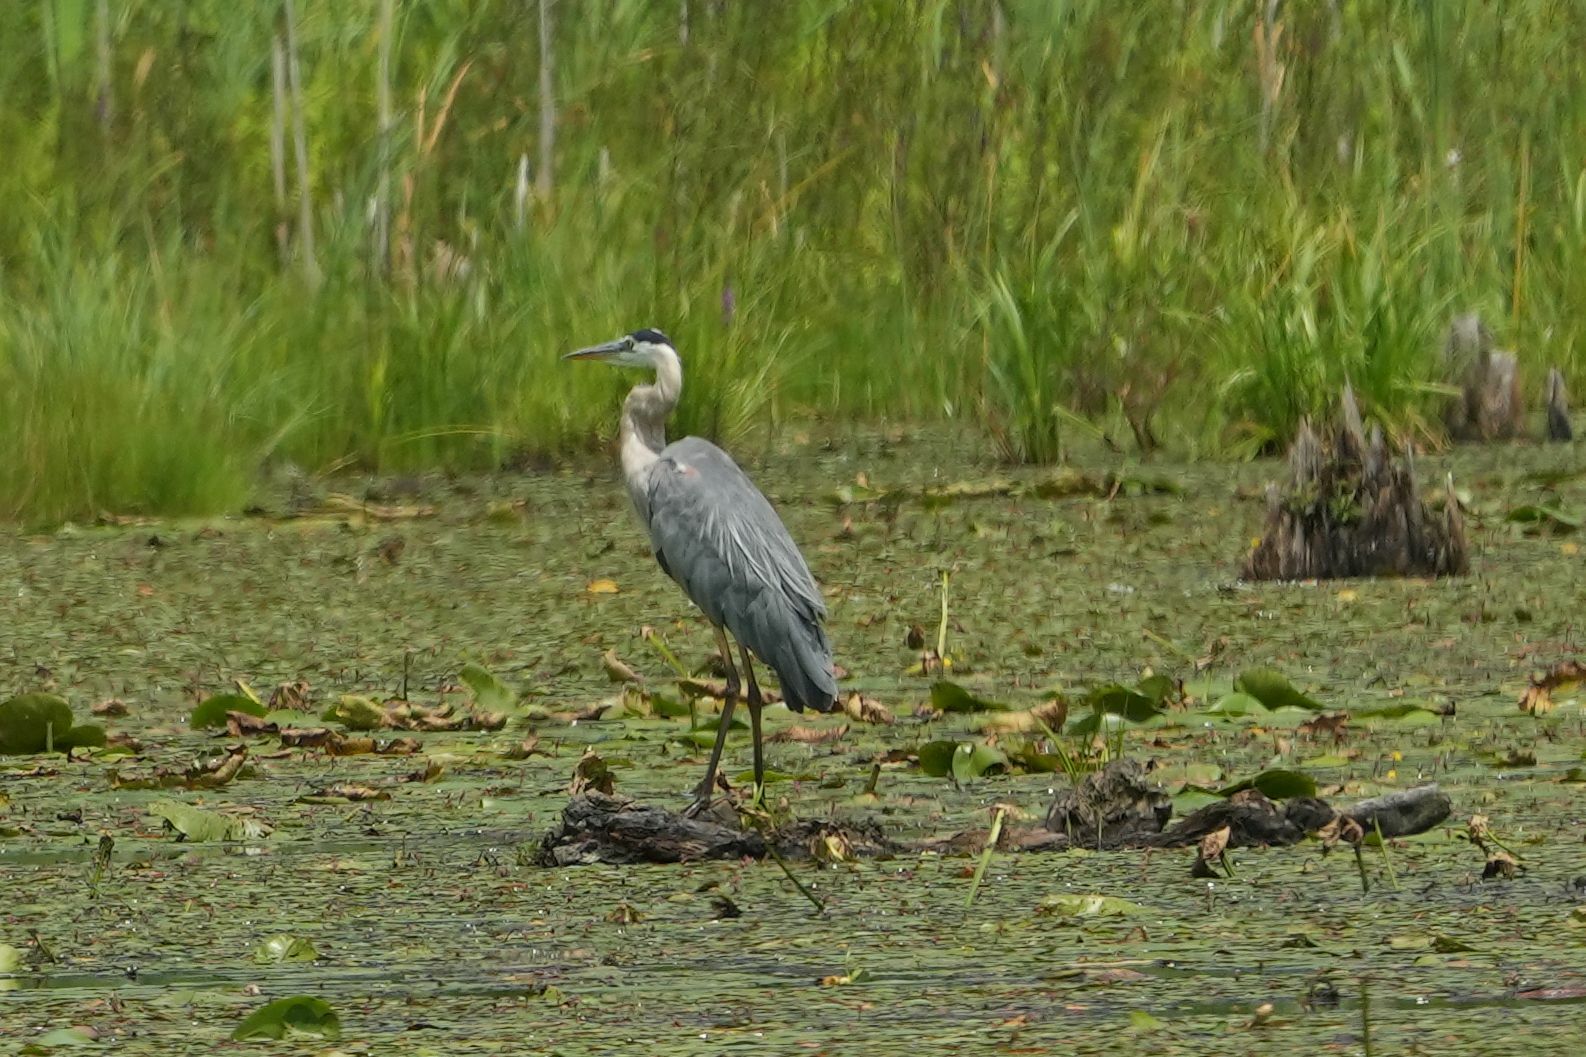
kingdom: Animalia
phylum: Chordata
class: Aves
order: Pelecaniformes
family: Ardeidae
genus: Ardea
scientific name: Ardea herodias
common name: Great blue heron
